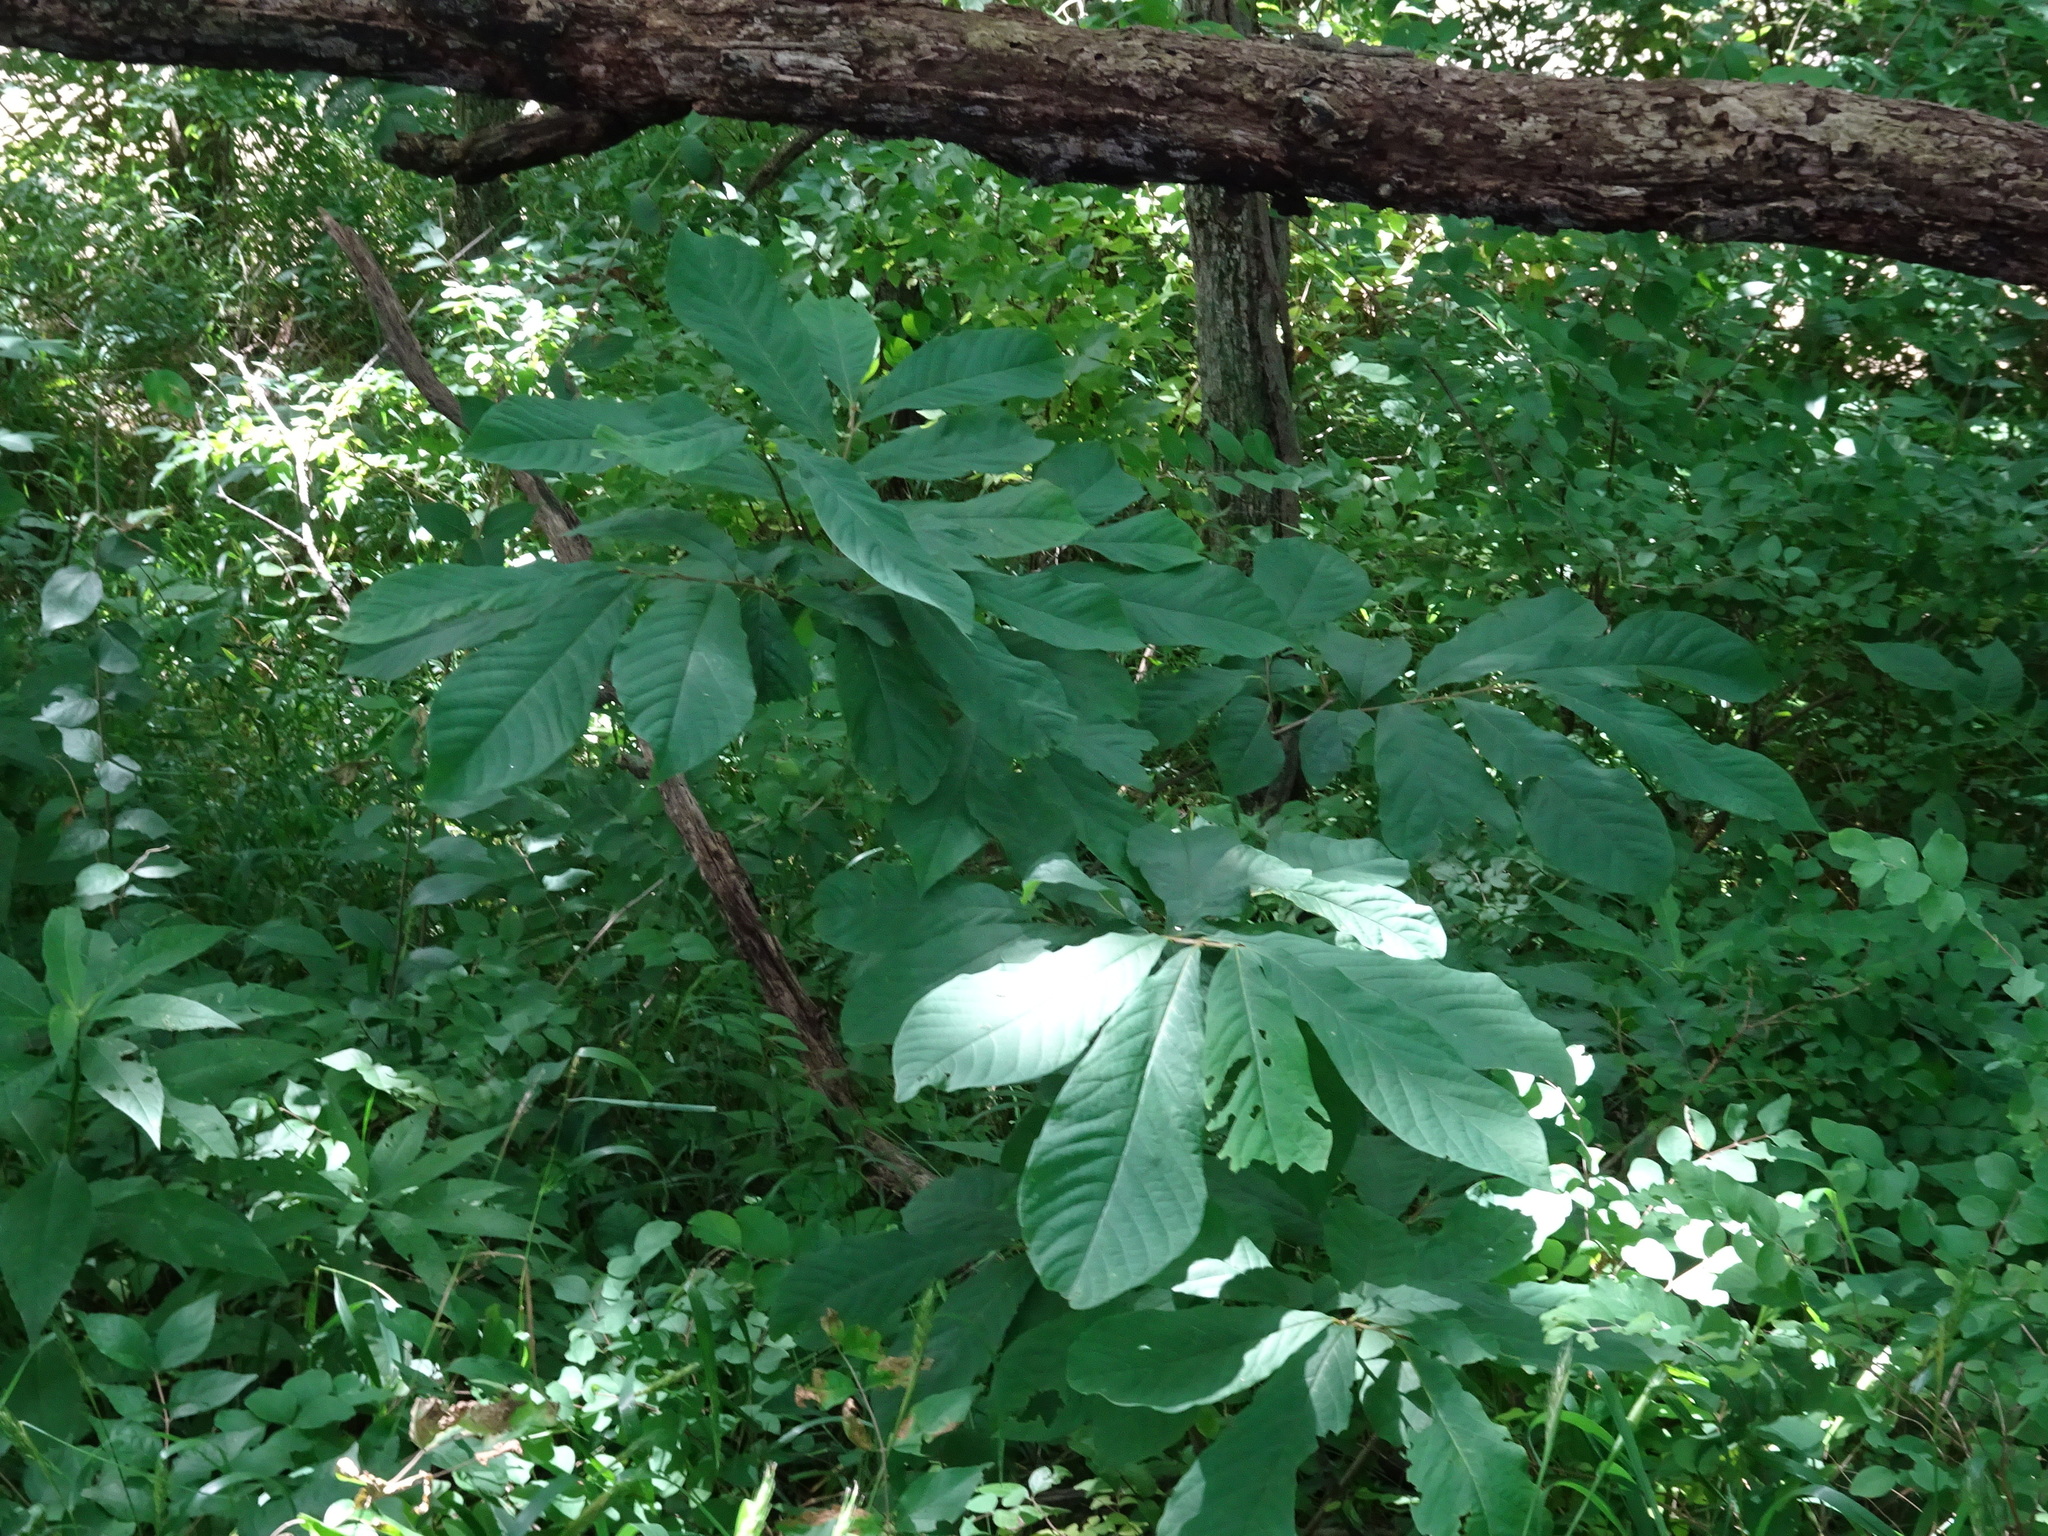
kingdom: Plantae
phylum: Tracheophyta
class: Magnoliopsida
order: Magnoliales
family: Annonaceae
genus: Asimina
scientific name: Asimina triloba
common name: Dog-banana
